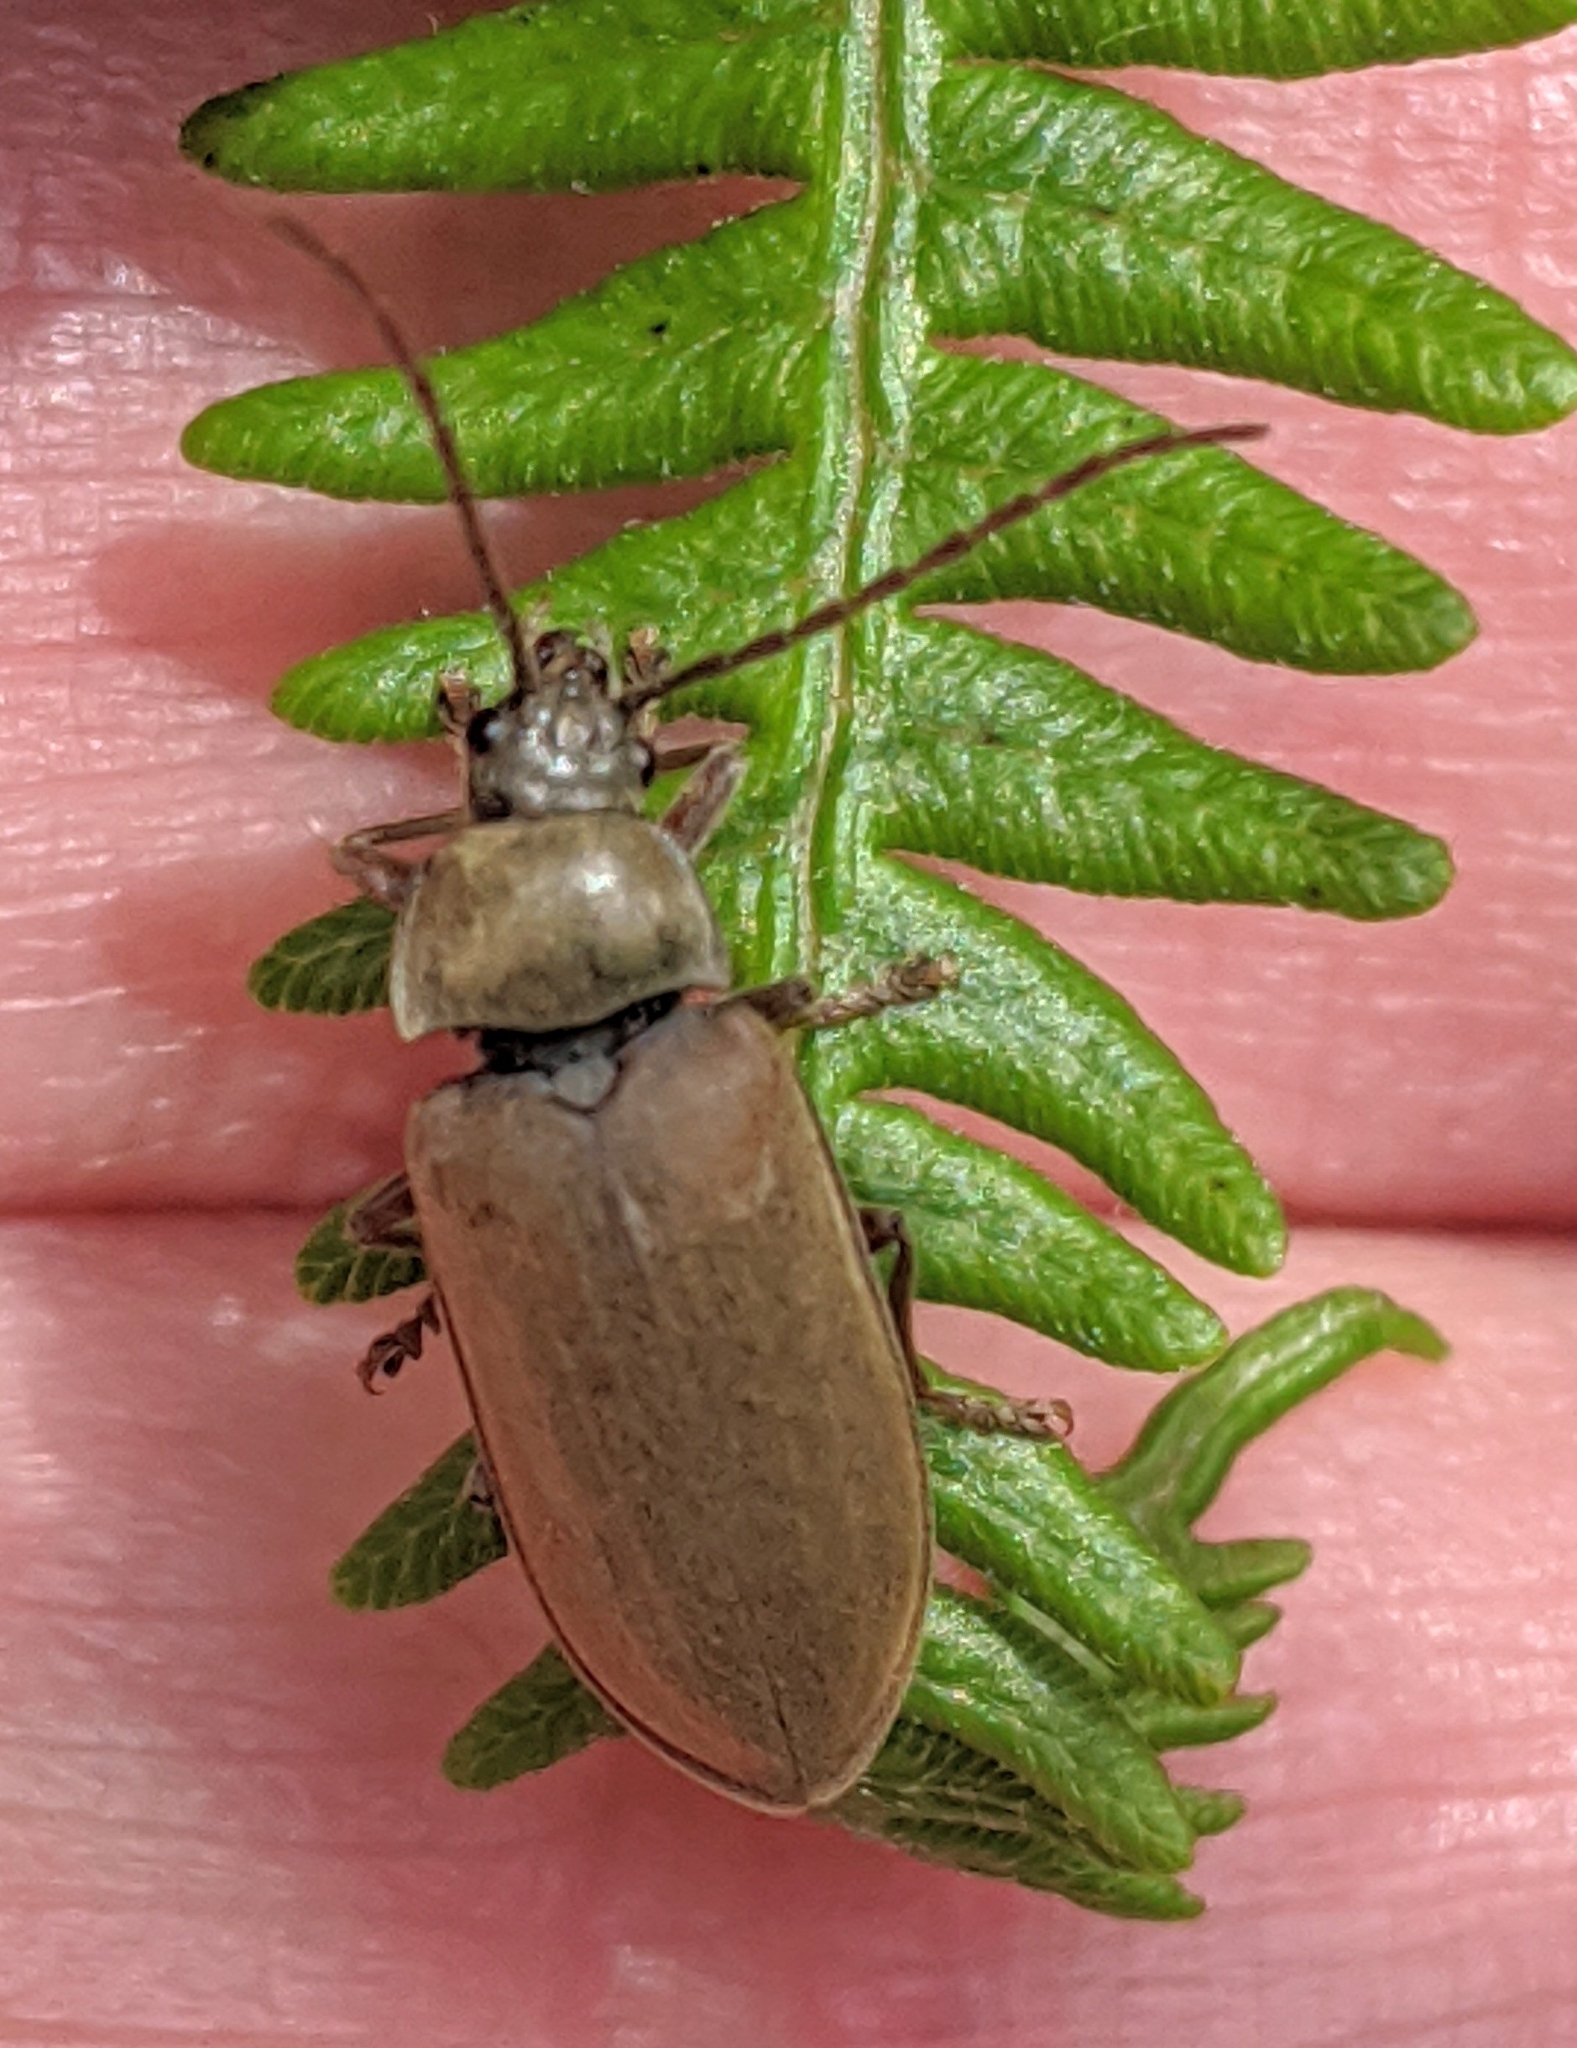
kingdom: Animalia
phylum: Arthropoda
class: Insecta
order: Coleoptera
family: Dascillidae
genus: Dascillus
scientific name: Dascillus cervinus
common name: Orchid beetle
